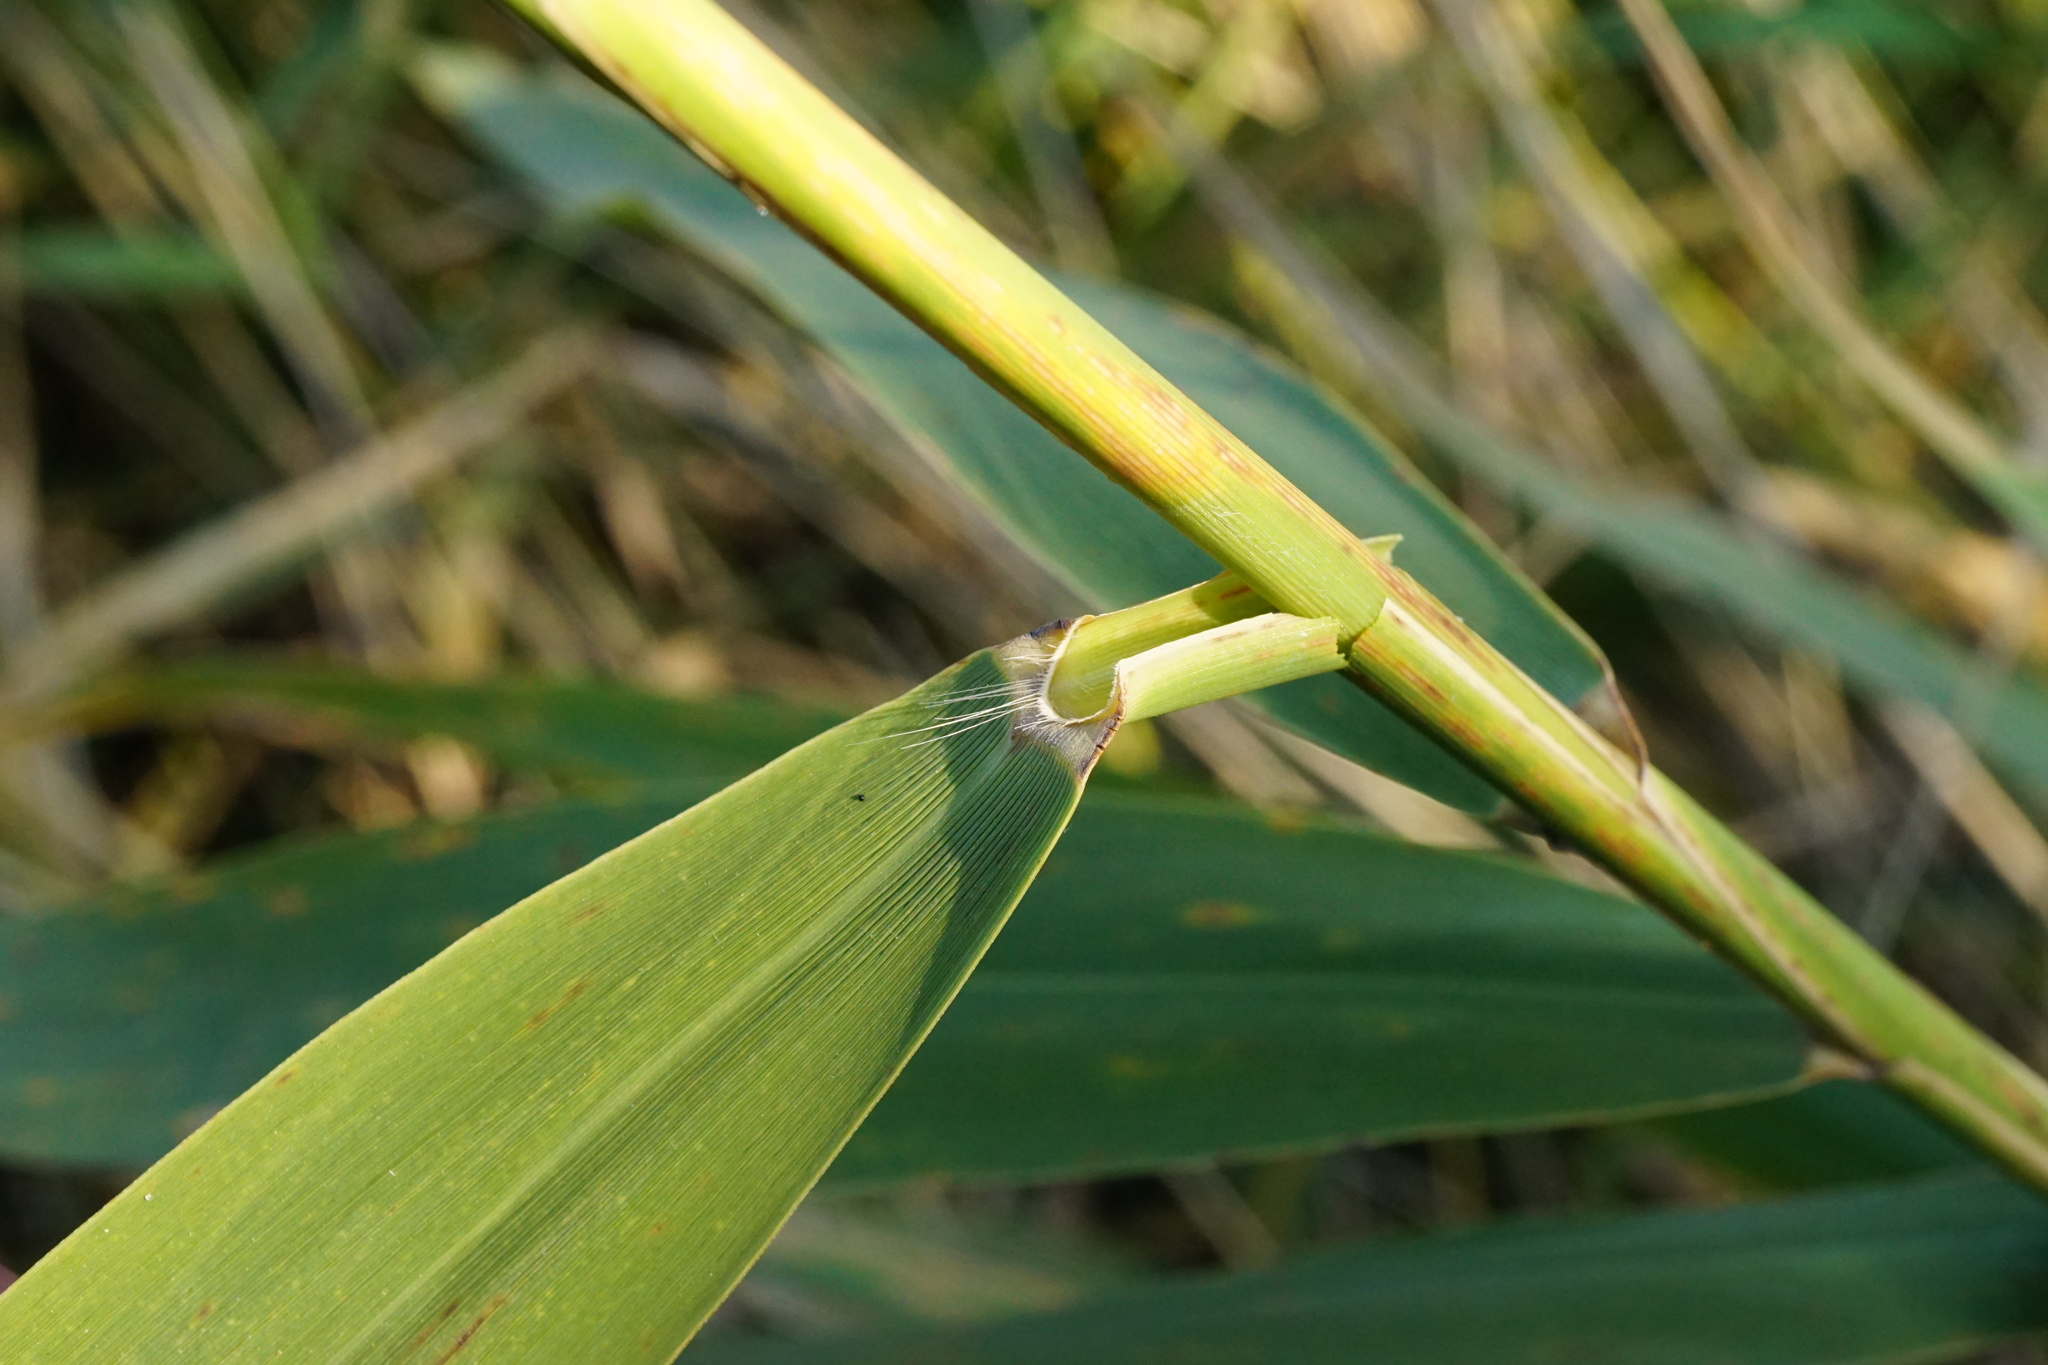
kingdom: Plantae
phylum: Tracheophyta
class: Liliopsida
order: Poales
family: Poaceae
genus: Phragmites
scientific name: Phragmites australis
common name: Common reed
